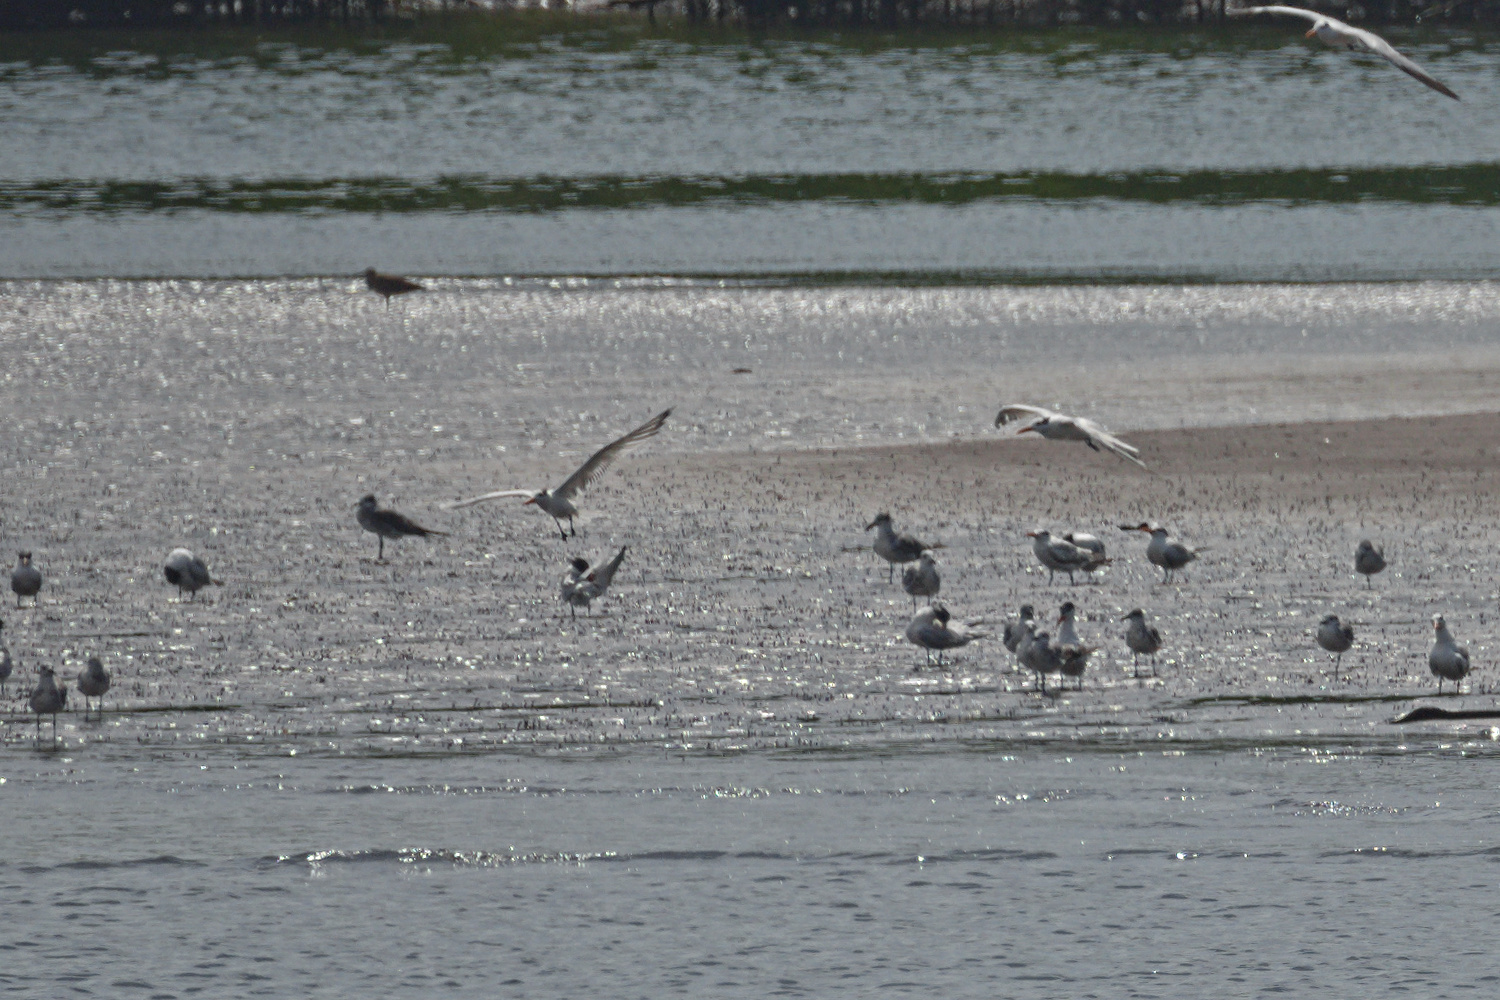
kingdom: Animalia
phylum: Chordata
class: Aves
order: Charadriiformes
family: Laridae
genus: Thalasseus
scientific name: Thalasseus maximus
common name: Royal tern
